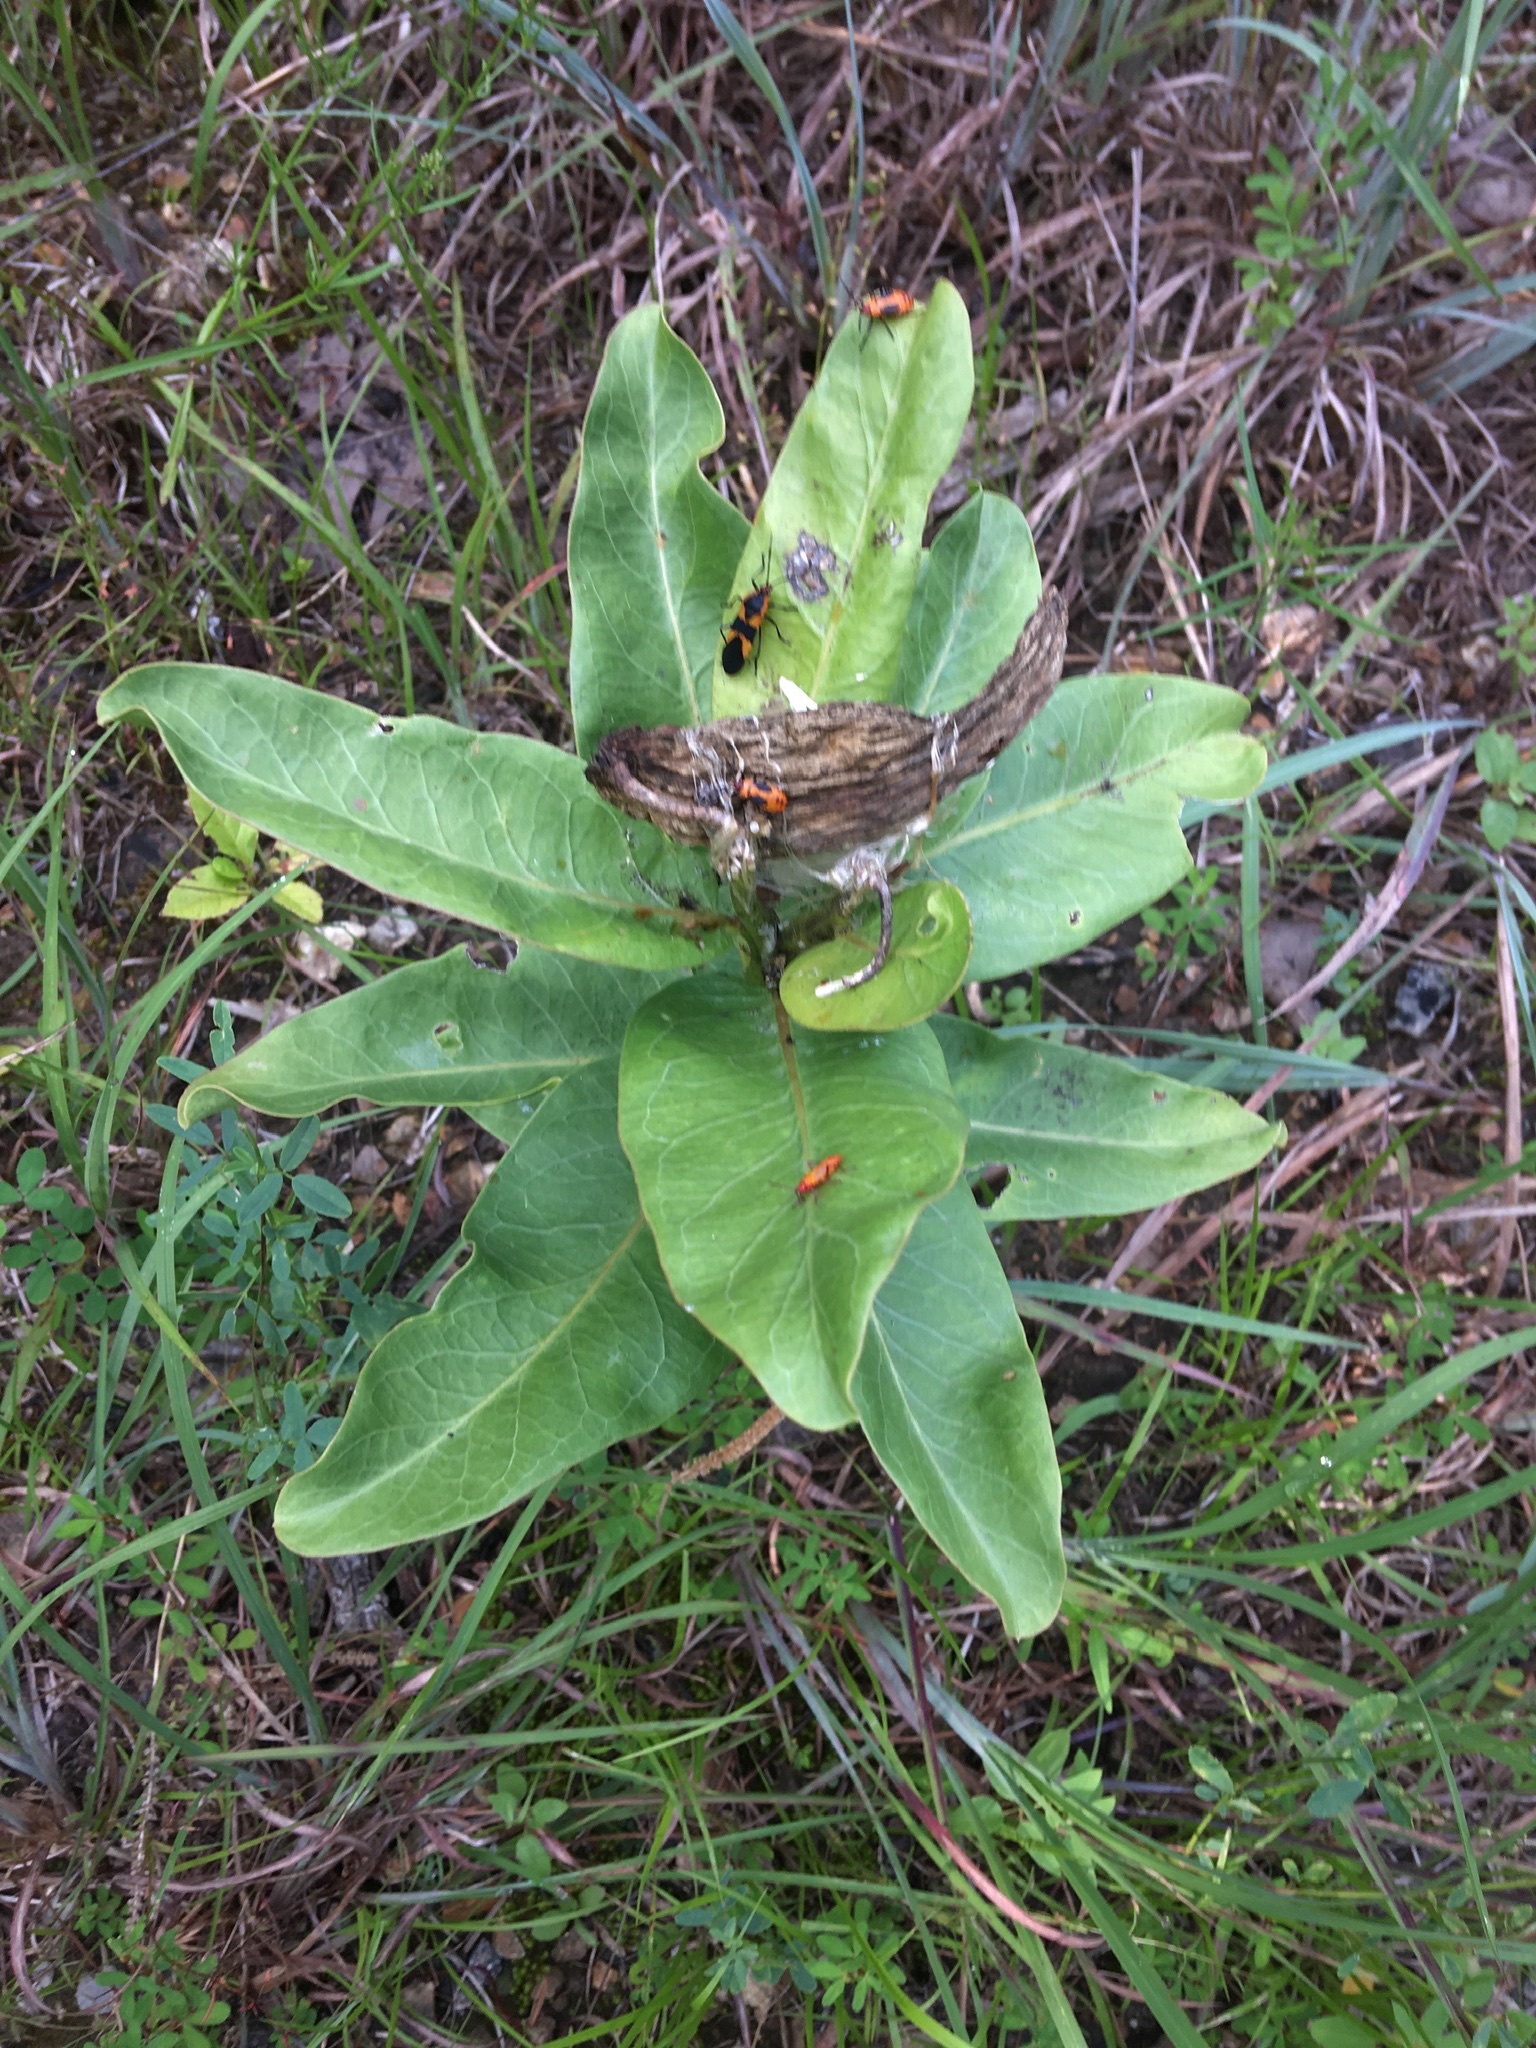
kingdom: Plantae
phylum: Tracheophyta
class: Magnoliopsida
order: Gentianales
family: Apocynaceae
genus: Asclepias
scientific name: Asclepias viridis
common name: Antelope-horns
